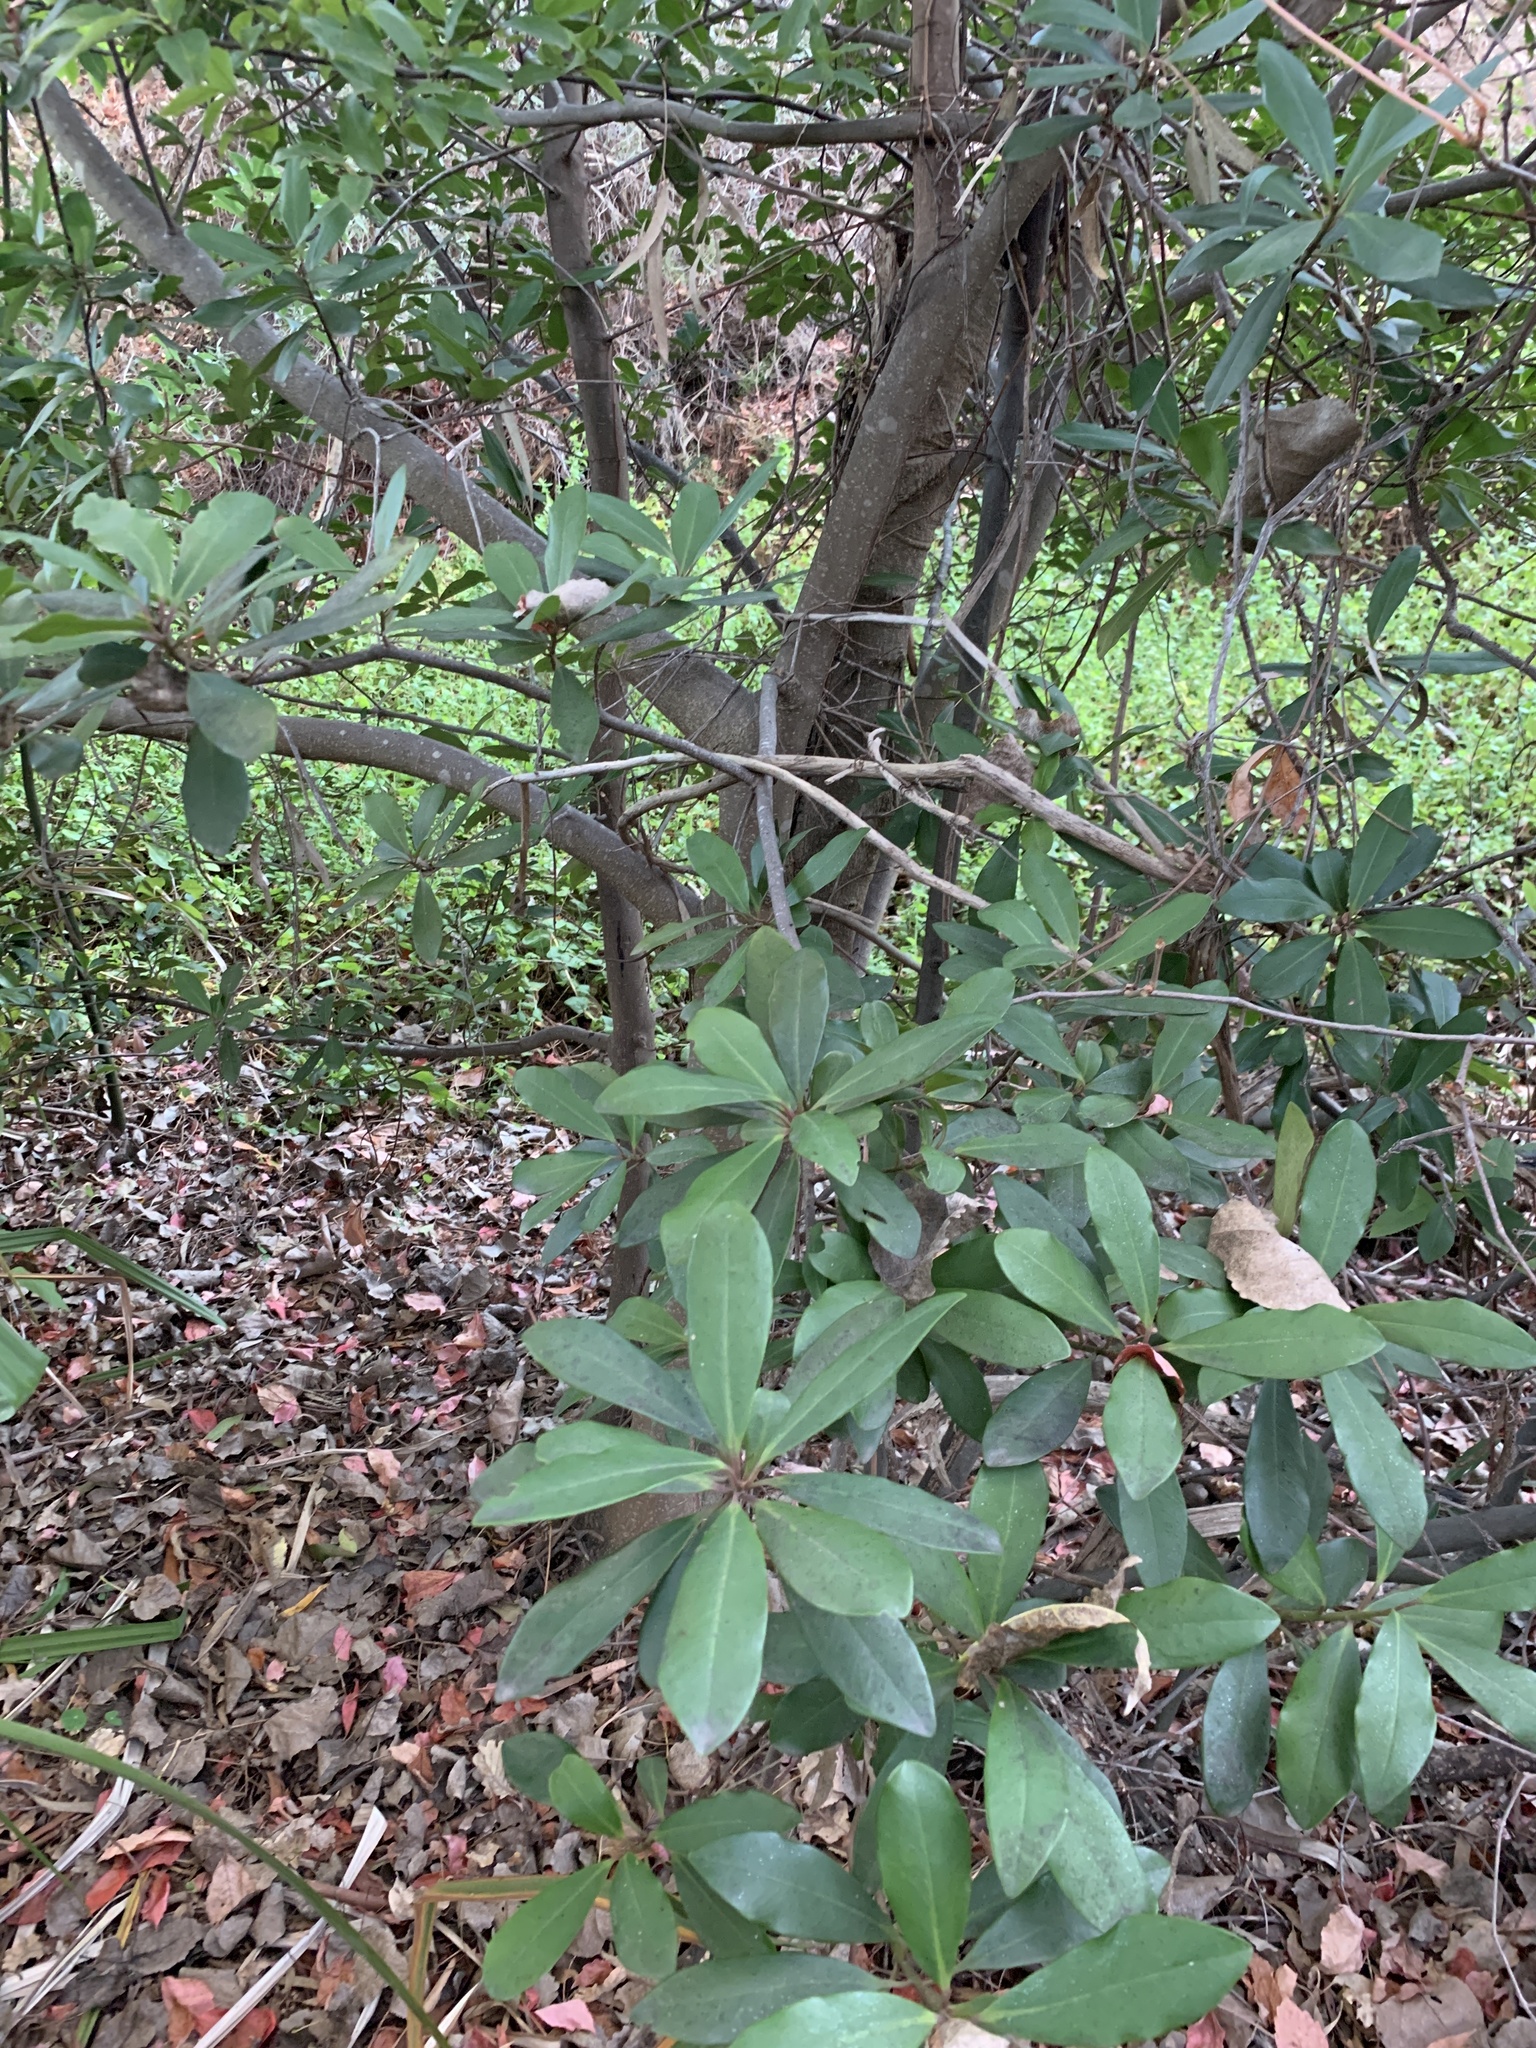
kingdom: Plantae
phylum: Tracheophyta
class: Magnoliopsida
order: Ericales
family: Primulaceae
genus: Myrsine
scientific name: Myrsine melanophloeos
